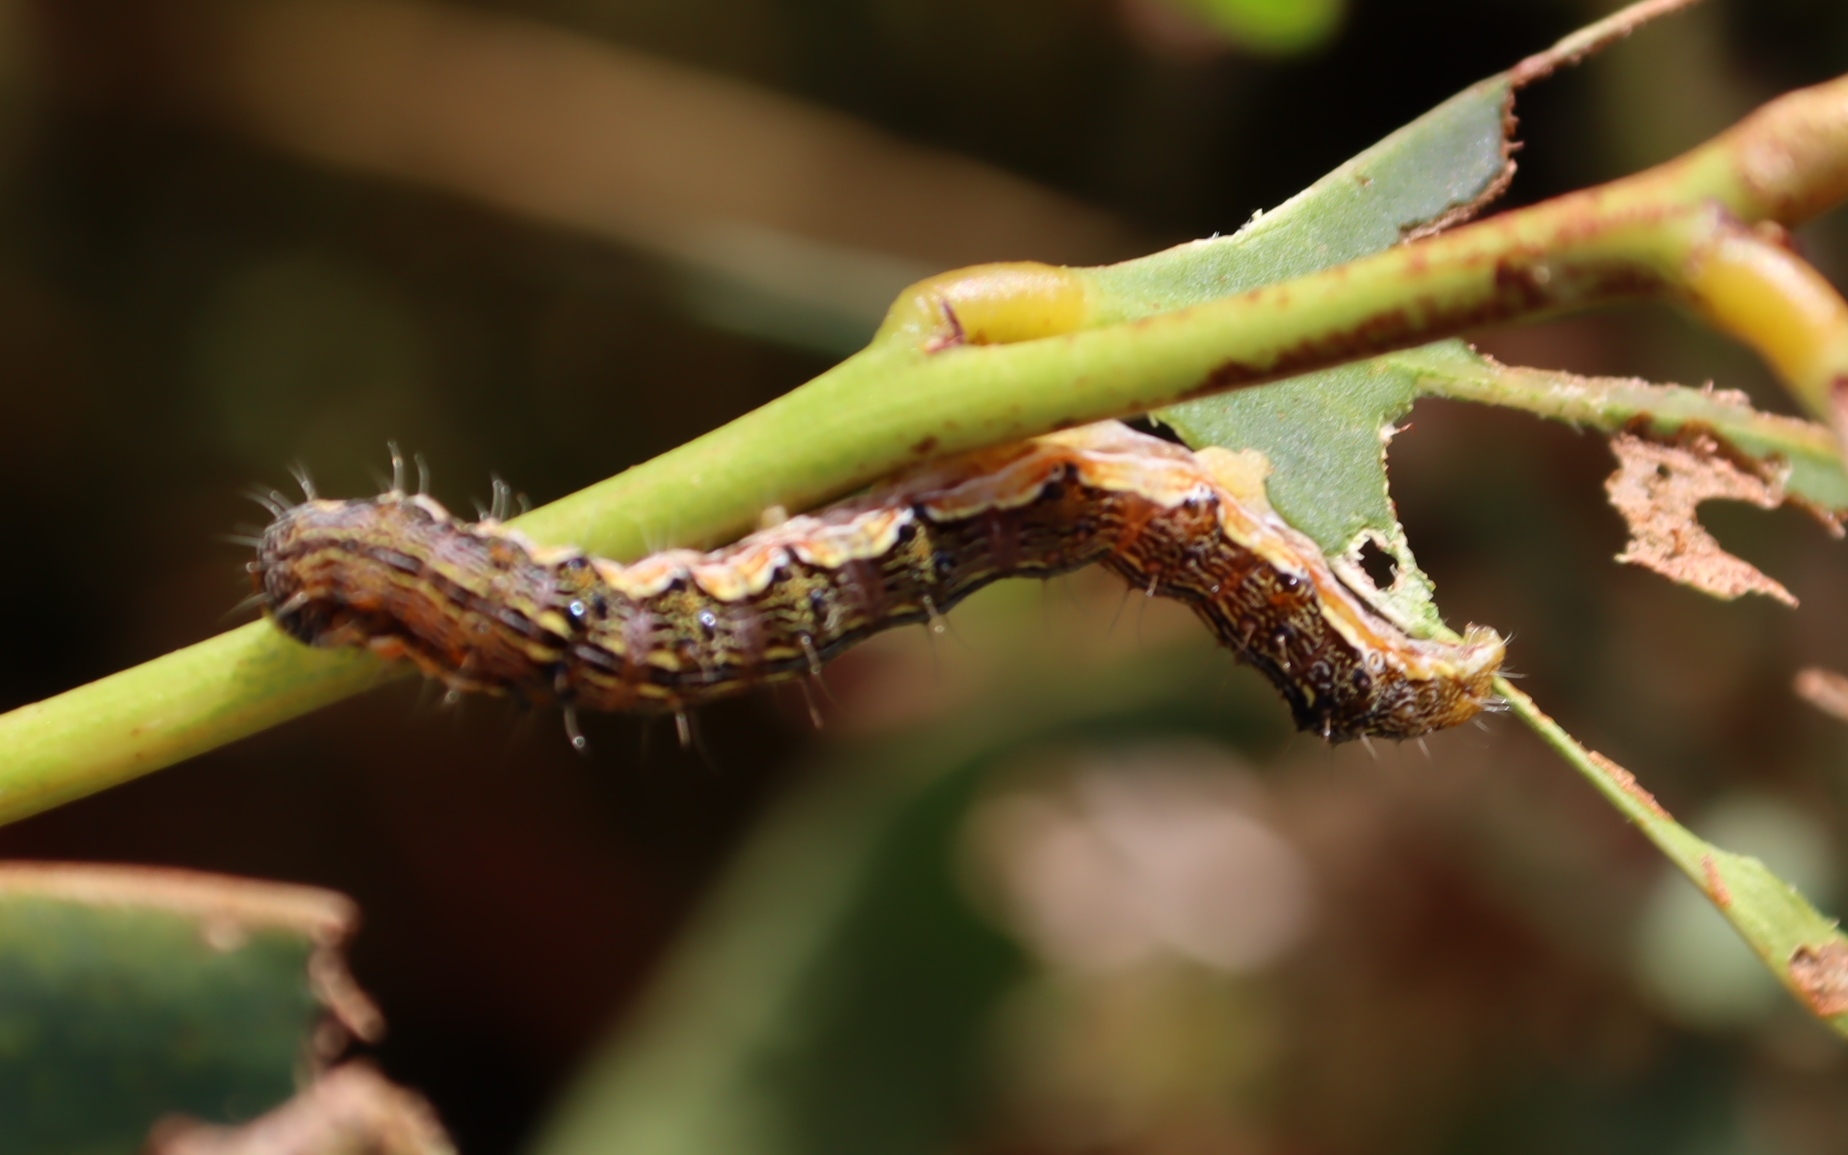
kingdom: Animalia
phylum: Arthropoda
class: Insecta
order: Lepidoptera
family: Noctuidae
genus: Helicoverpa
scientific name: Helicoverpa armigera
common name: Cotton bollworm
